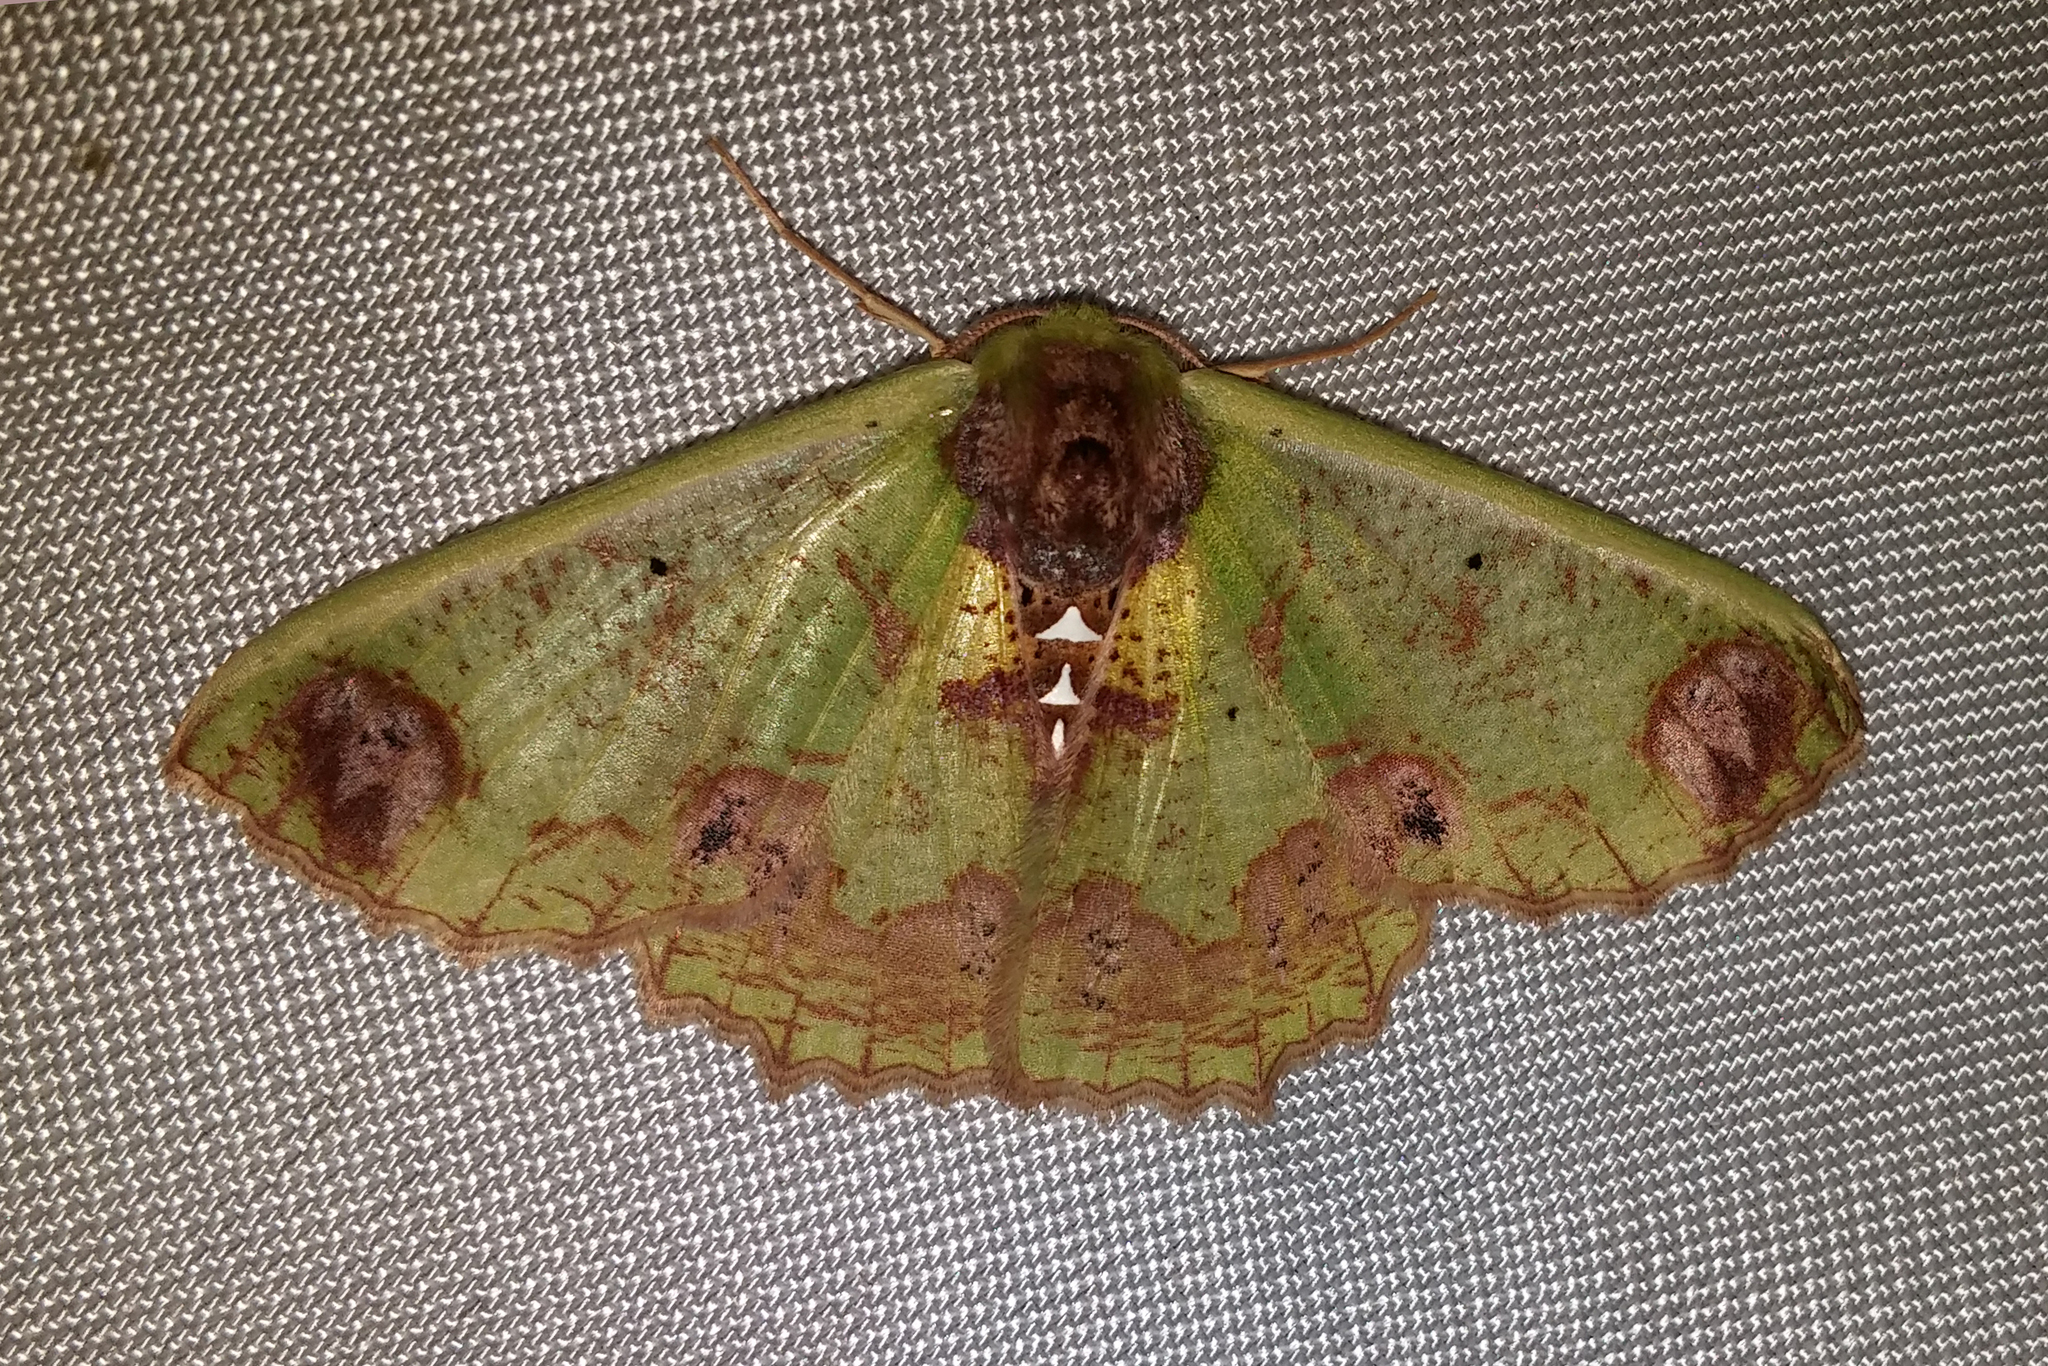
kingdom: Animalia
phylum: Arthropoda
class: Insecta
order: Lepidoptera
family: Geometridae
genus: Agathiopsis
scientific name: Agathiopsis basipuncta
